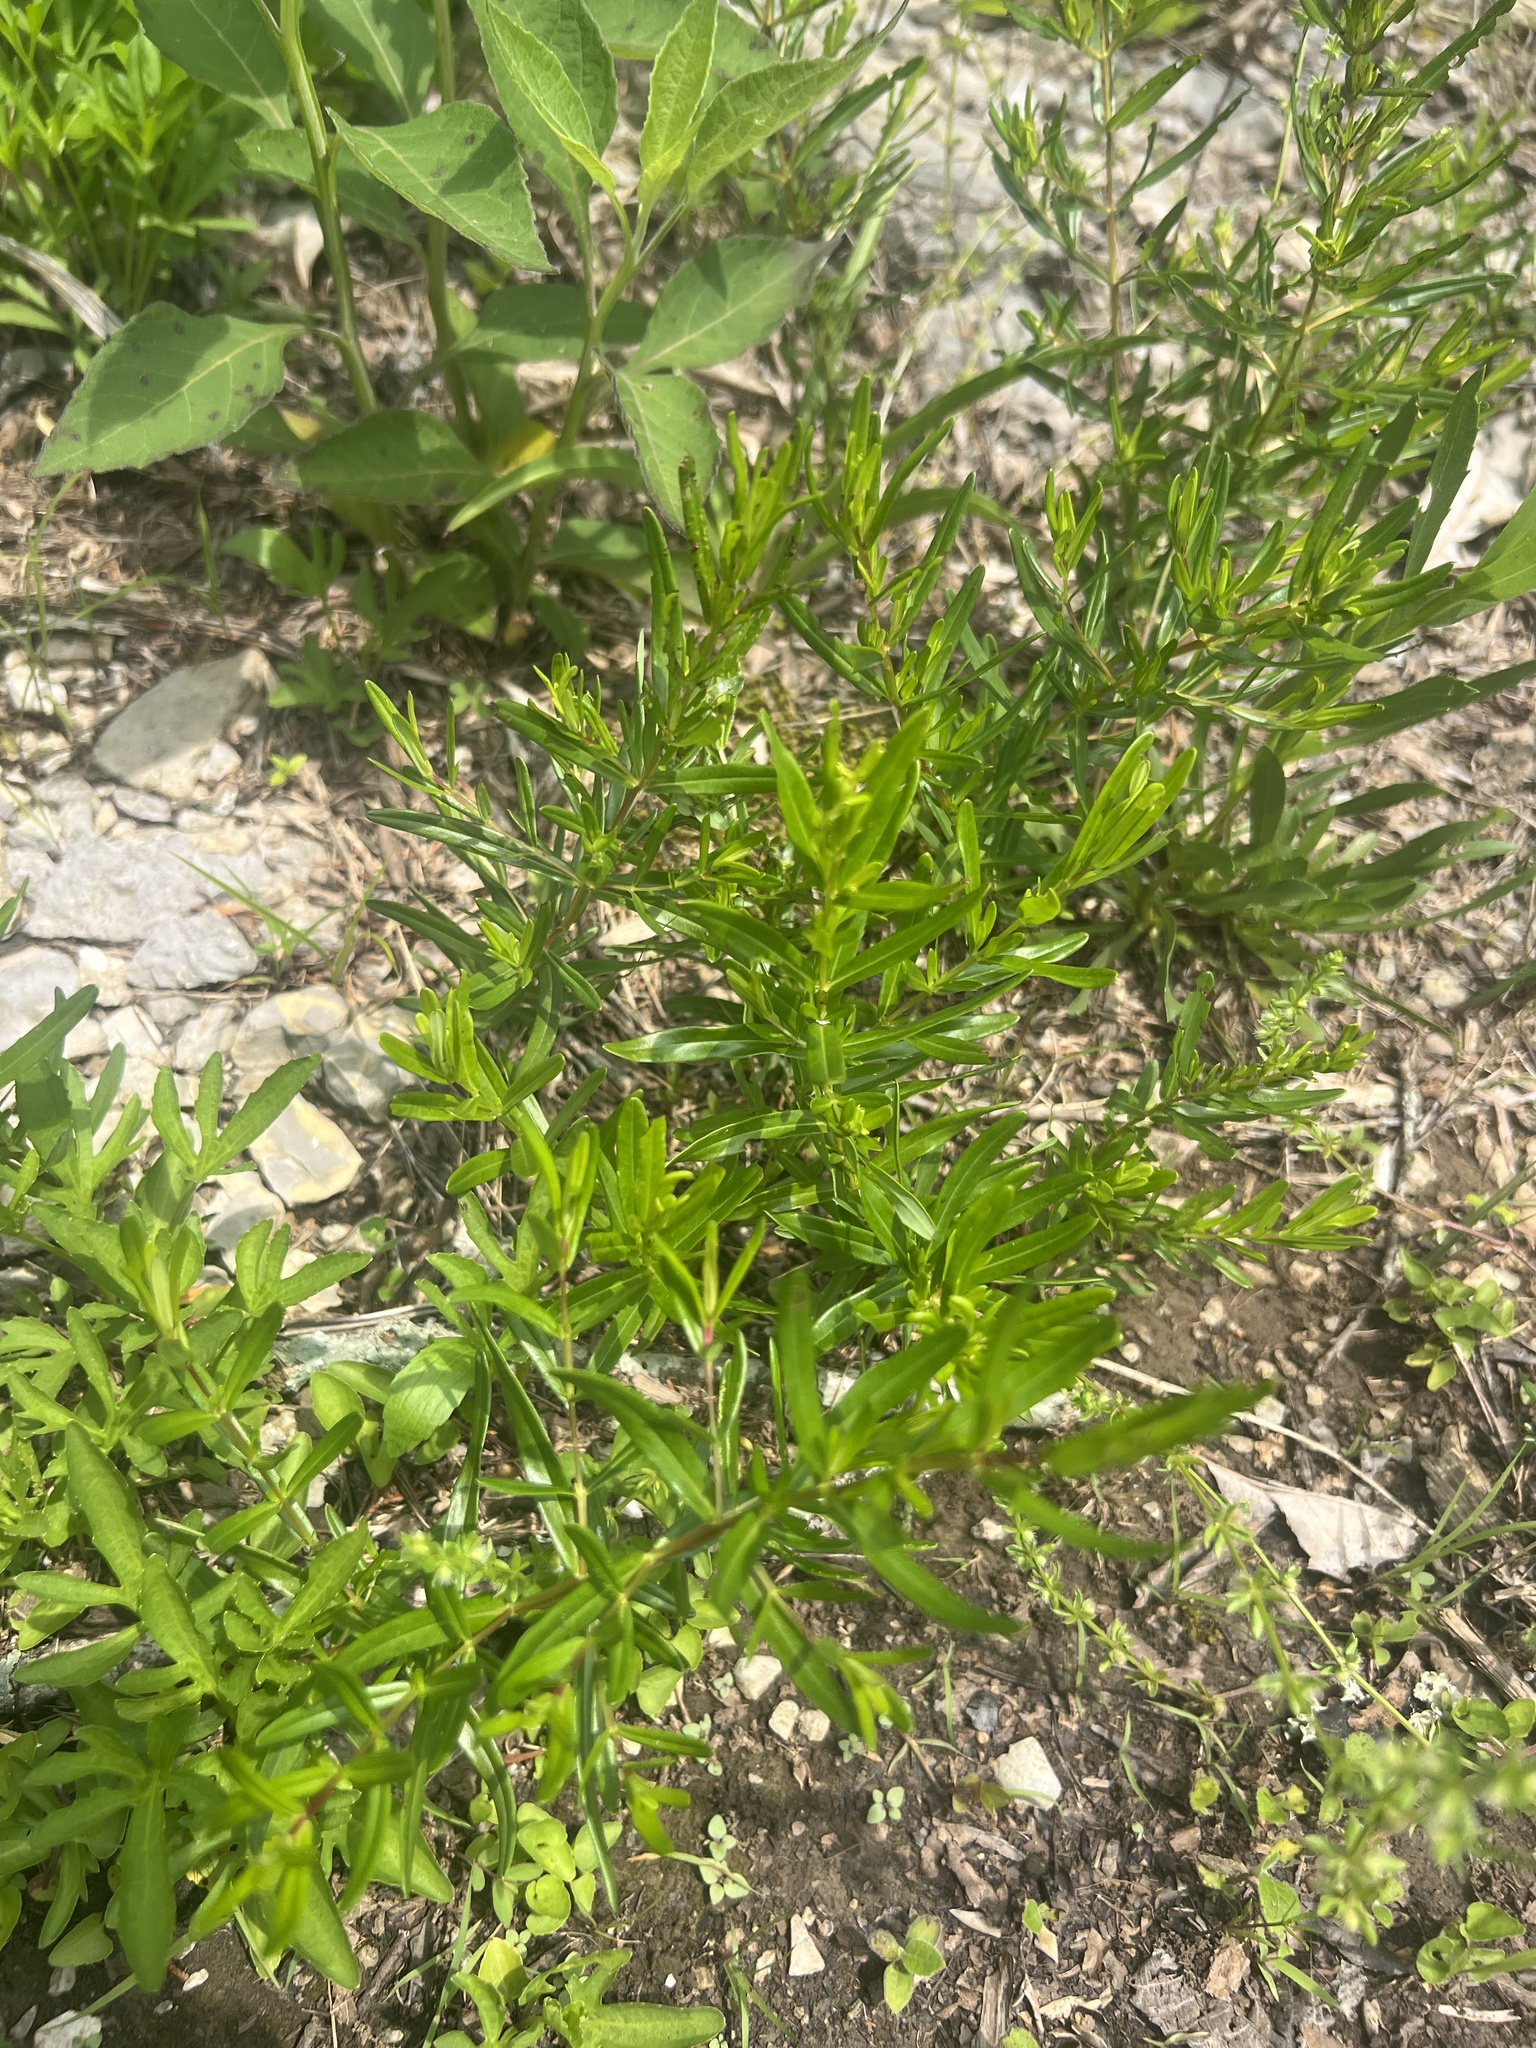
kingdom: Plantae
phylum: Tracheophyta
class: Magnoliopsida
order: Malpighiales
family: Hypericaceae
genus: Hypericum
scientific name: Hypericum sphaerocarpum
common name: Round-fruited st. john's-wort
